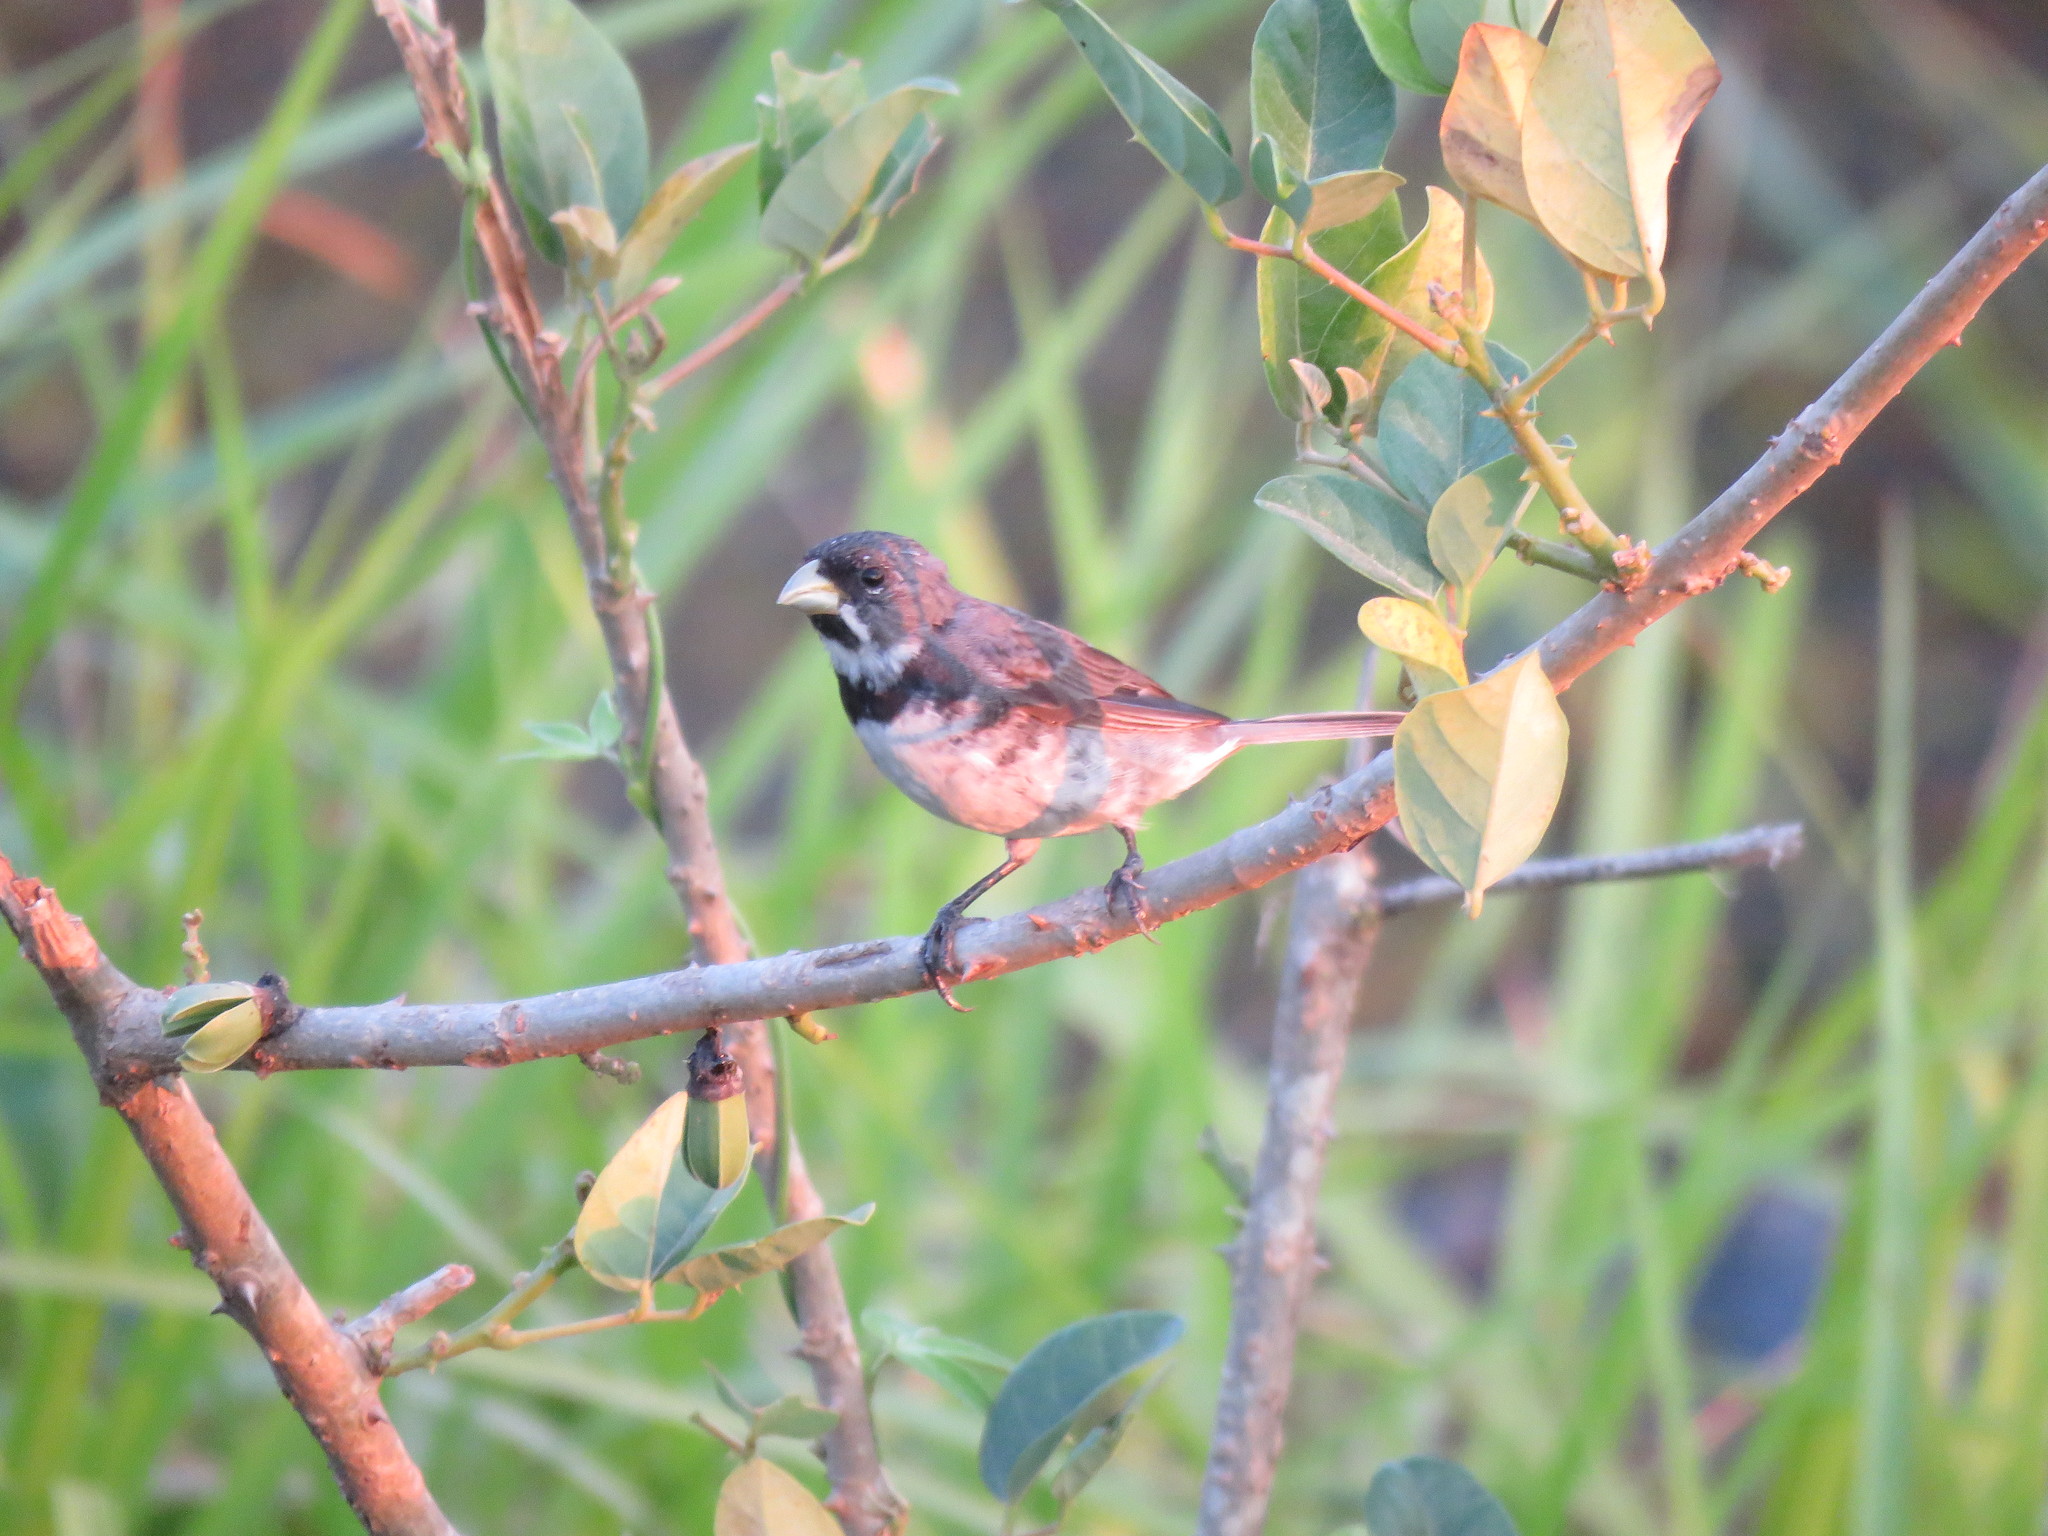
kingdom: Animalia
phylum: Chordata
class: Aves
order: Passeriformes
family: Thraupidae
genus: Sporophila
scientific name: Sporophila caerulescens
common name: Double-collared seedeater
